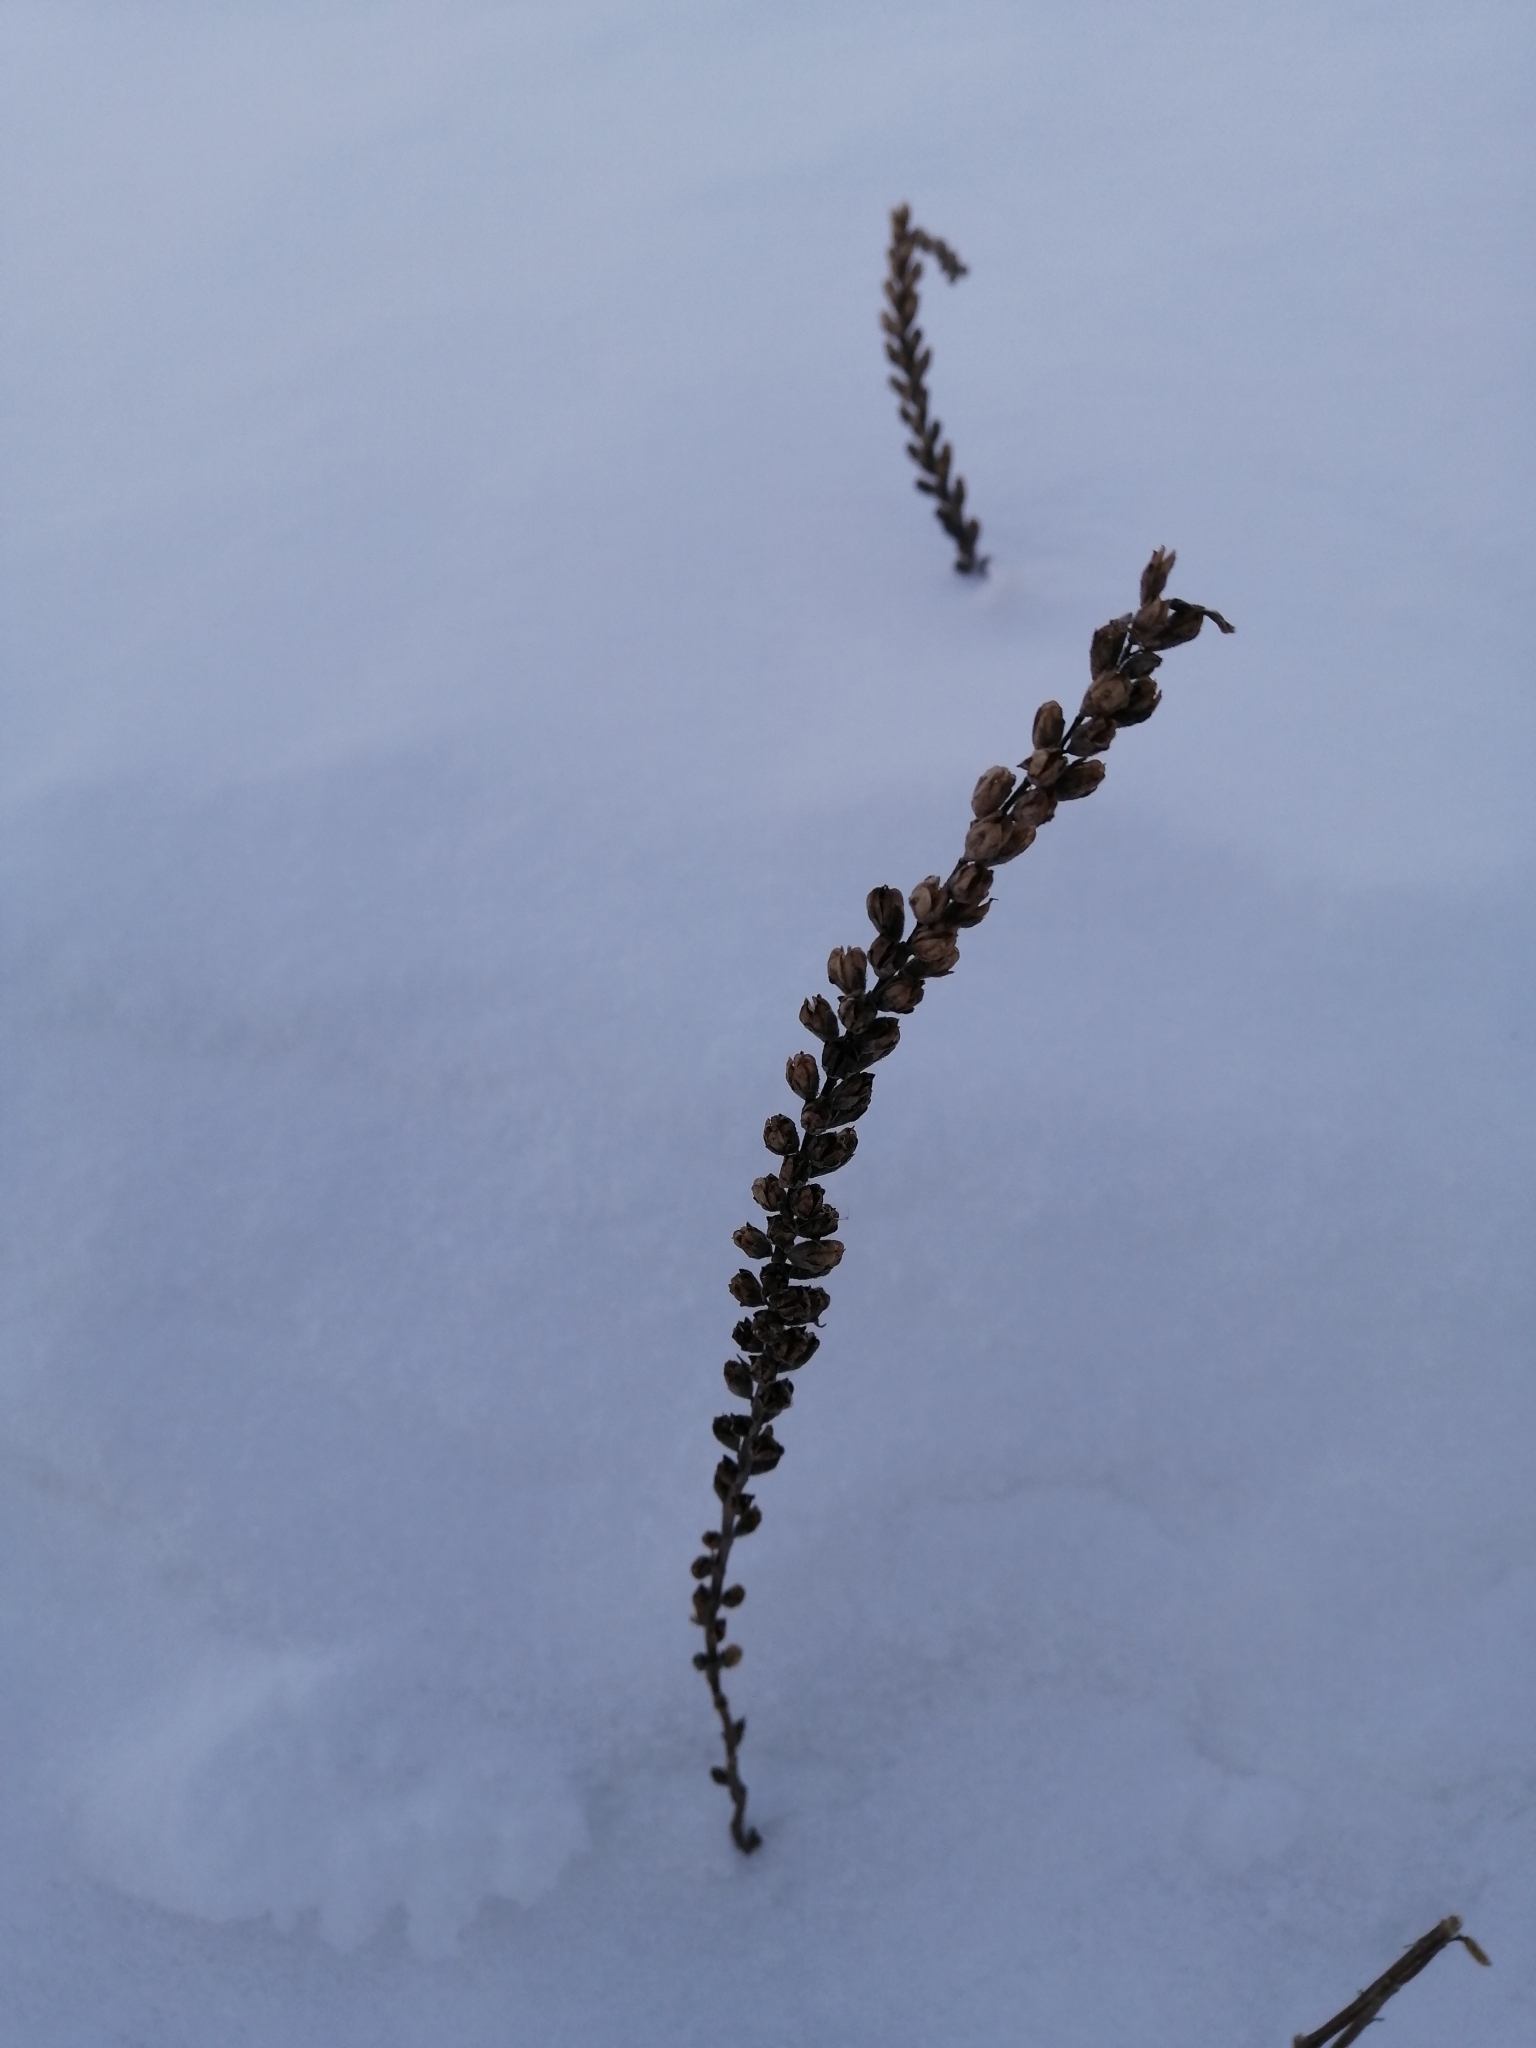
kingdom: Plantae
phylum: Tracheophyta
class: Magnoliopsida
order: Lamiales
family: Orobanchaceae
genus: Odontites
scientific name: Odontites vulgaris
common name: Broomrape
